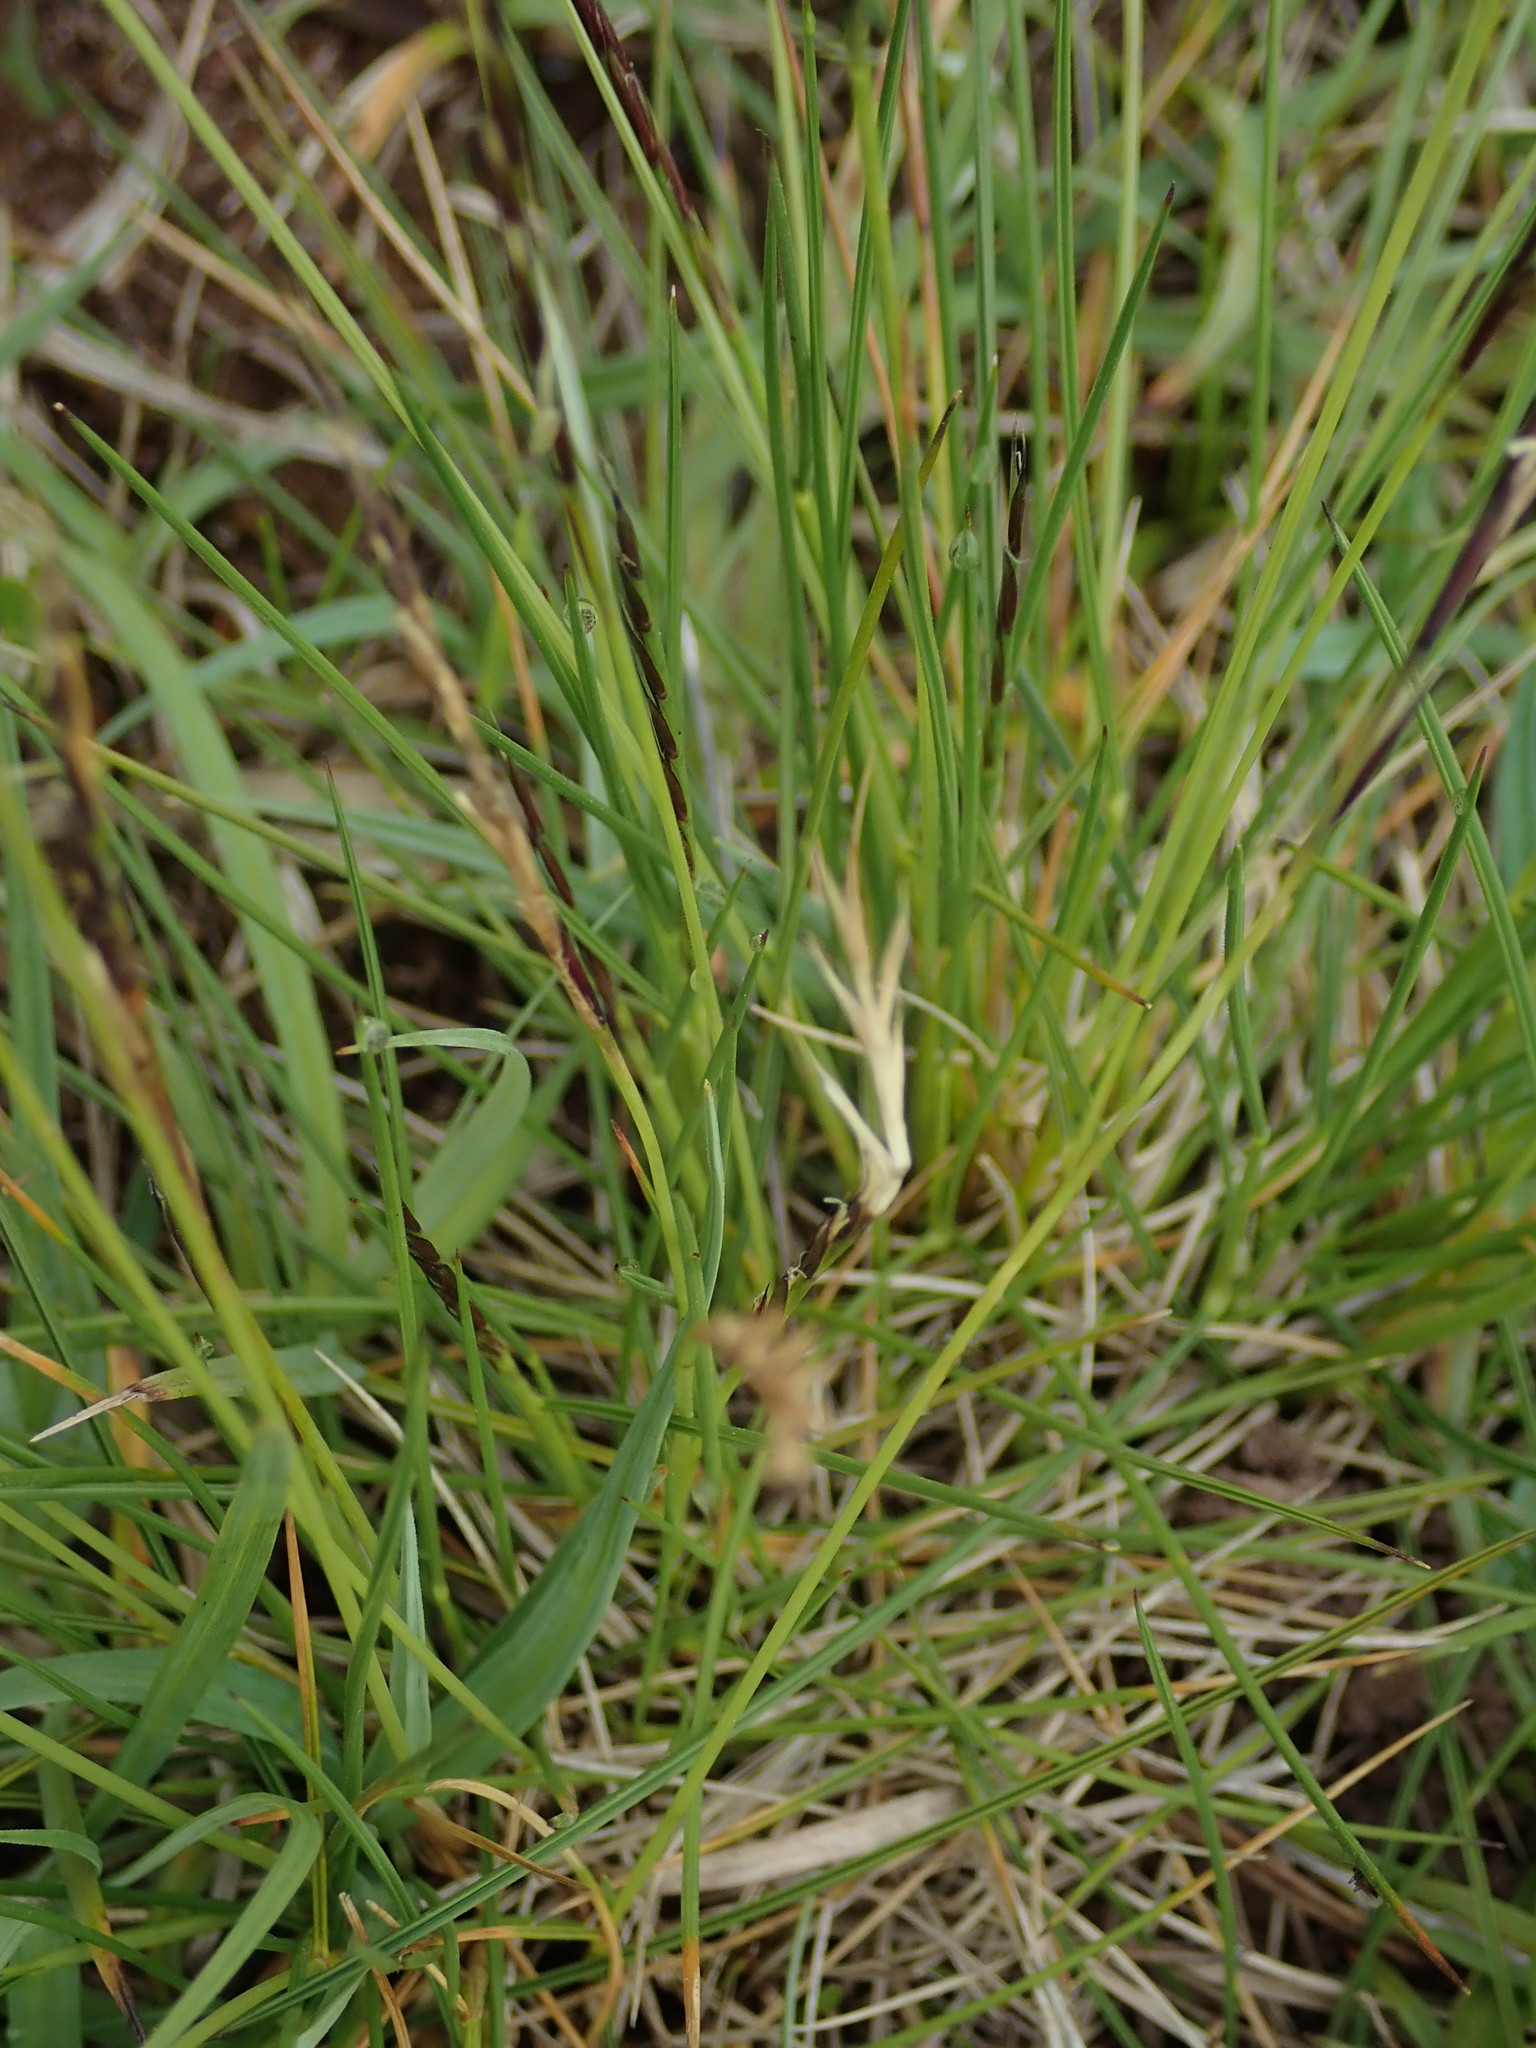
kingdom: Plantae
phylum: Tracheophyta
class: Liliopsida
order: Poales
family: Poaceae
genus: Nardus
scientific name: Nardus stricta
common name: Mat-grass
